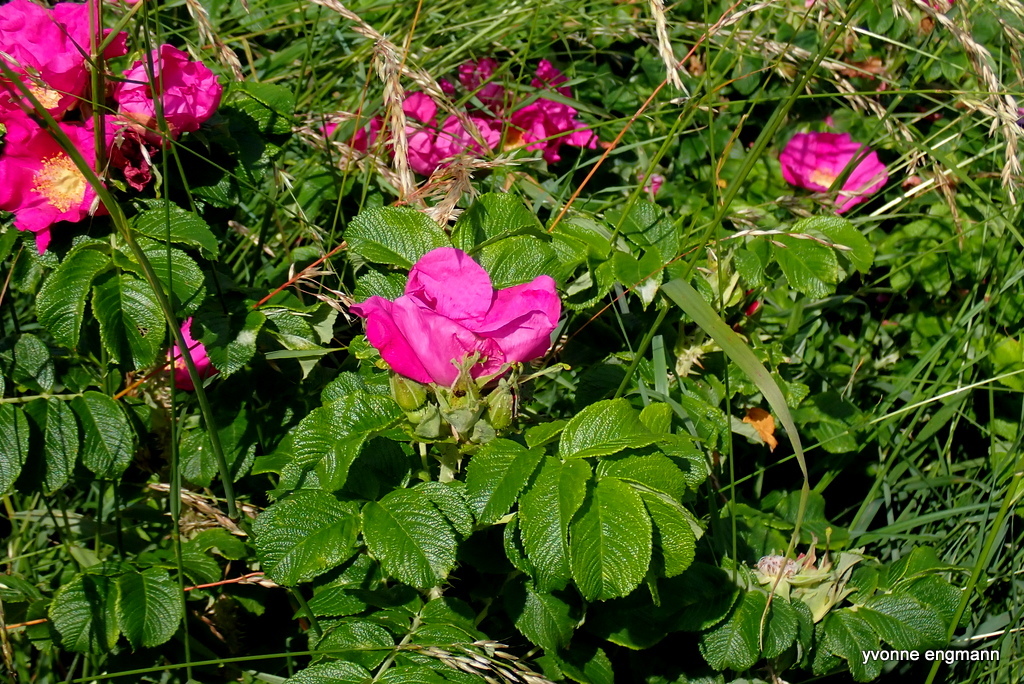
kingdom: Plantae
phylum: Tracheophyta
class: Magnoliopsida
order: Rosales
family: Rosaceae
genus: Rosa
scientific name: Rosa rugosa
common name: Japanese rose
